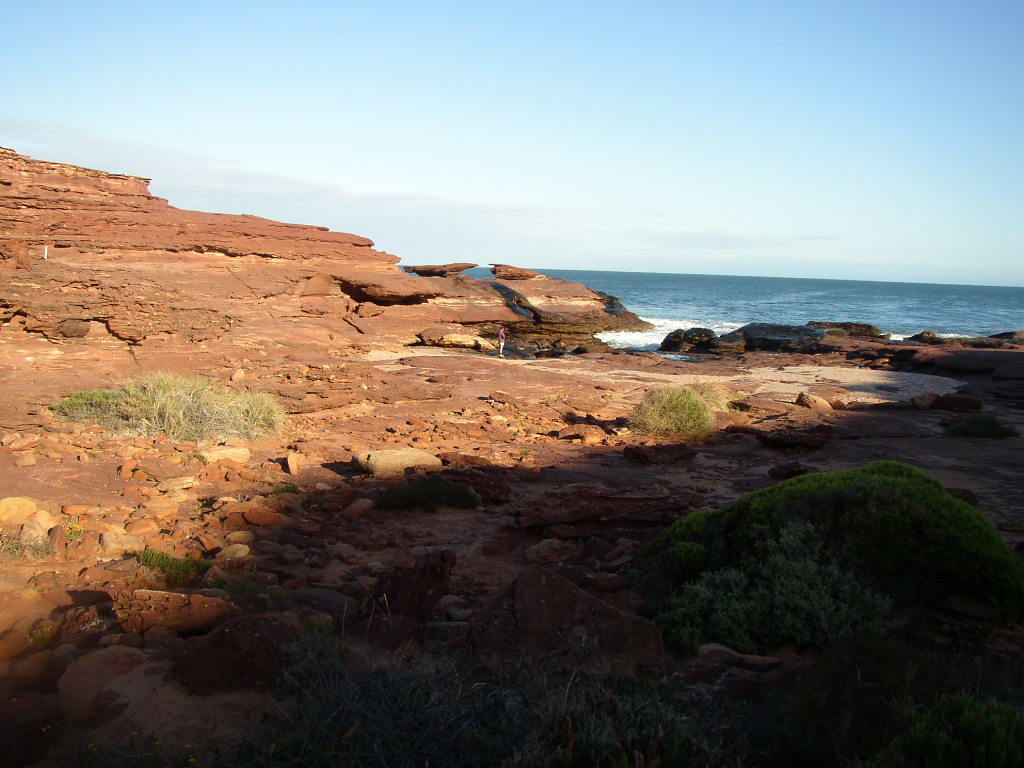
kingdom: Plantae
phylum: Tracheophyta
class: Liliopsida
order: Poales
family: Poaceae
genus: Spinifex
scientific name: Spinifex longifolius
